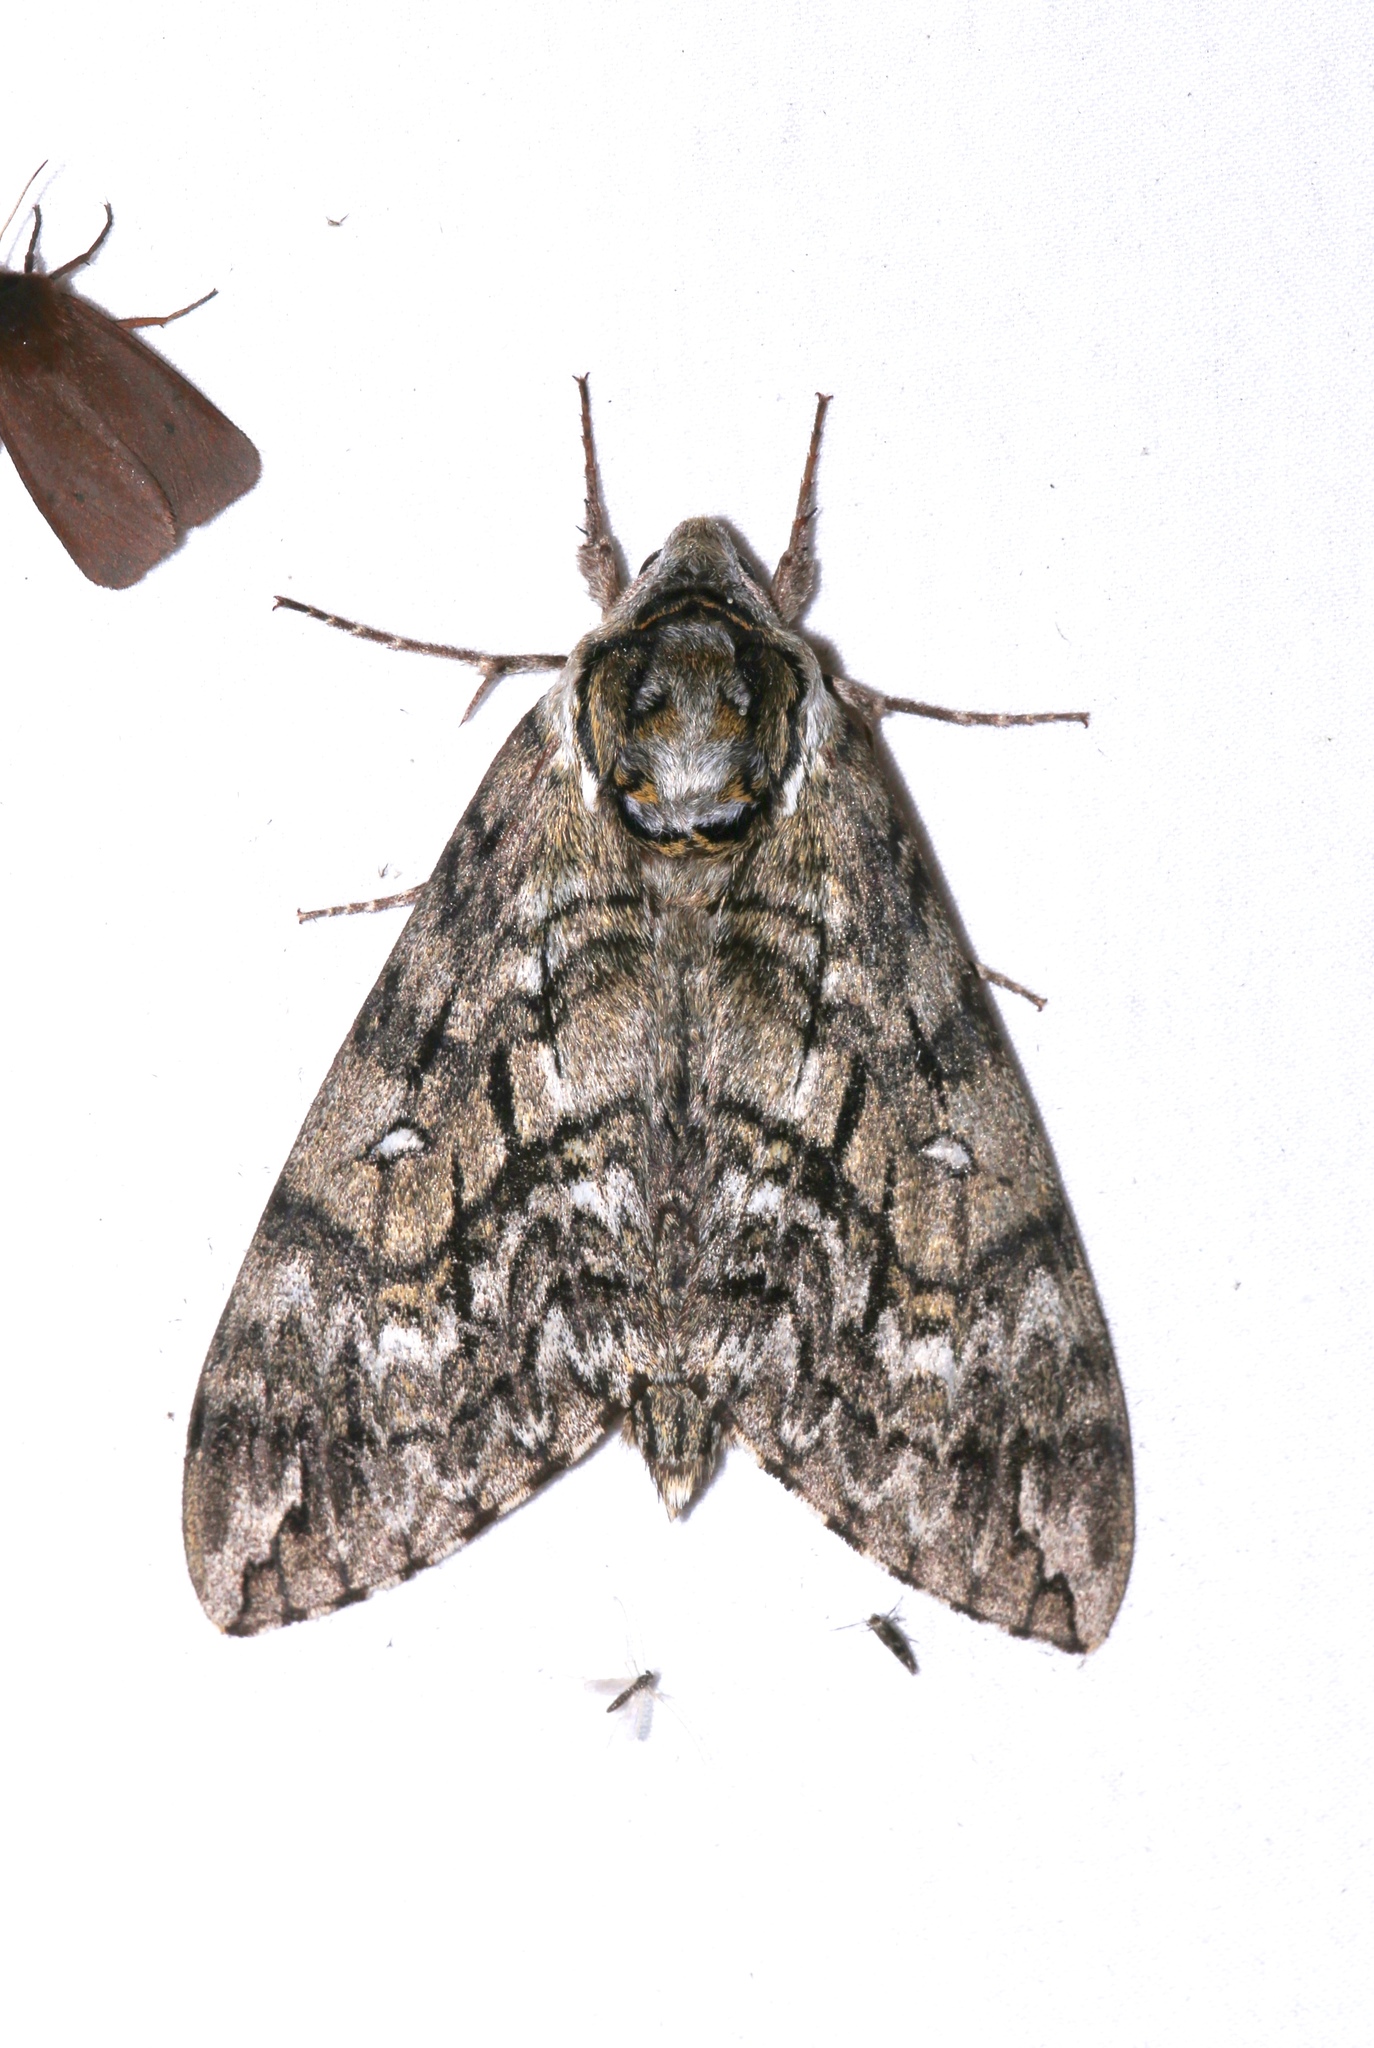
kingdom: Animalia
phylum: Arthropoda
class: Insecta
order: Lepidoptera
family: Sphingidae
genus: Ceratomia
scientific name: Ceratomia undulosa
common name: Waved sphinx
